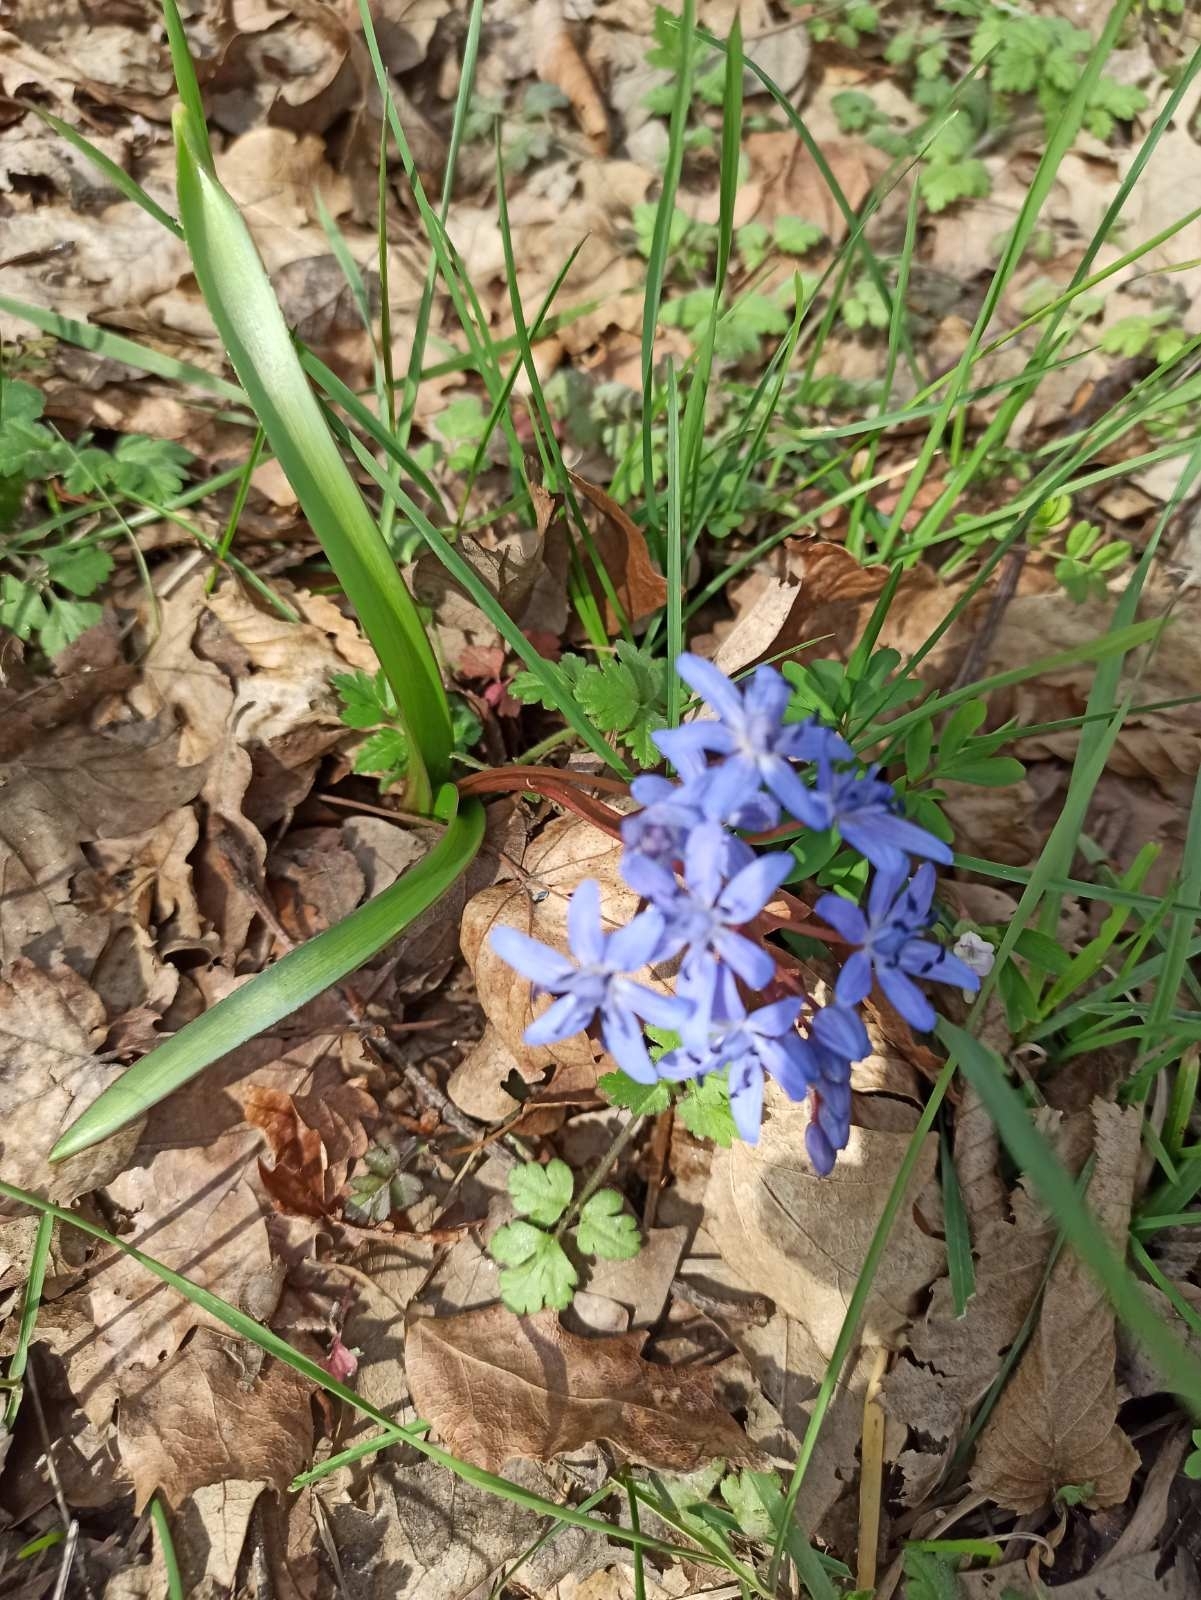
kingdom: Plantae
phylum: Tracheophyta
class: Liliopsida
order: Asparagales
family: Asparagaceae
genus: Scilla
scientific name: Scilla bifolia
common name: Alpine squill
